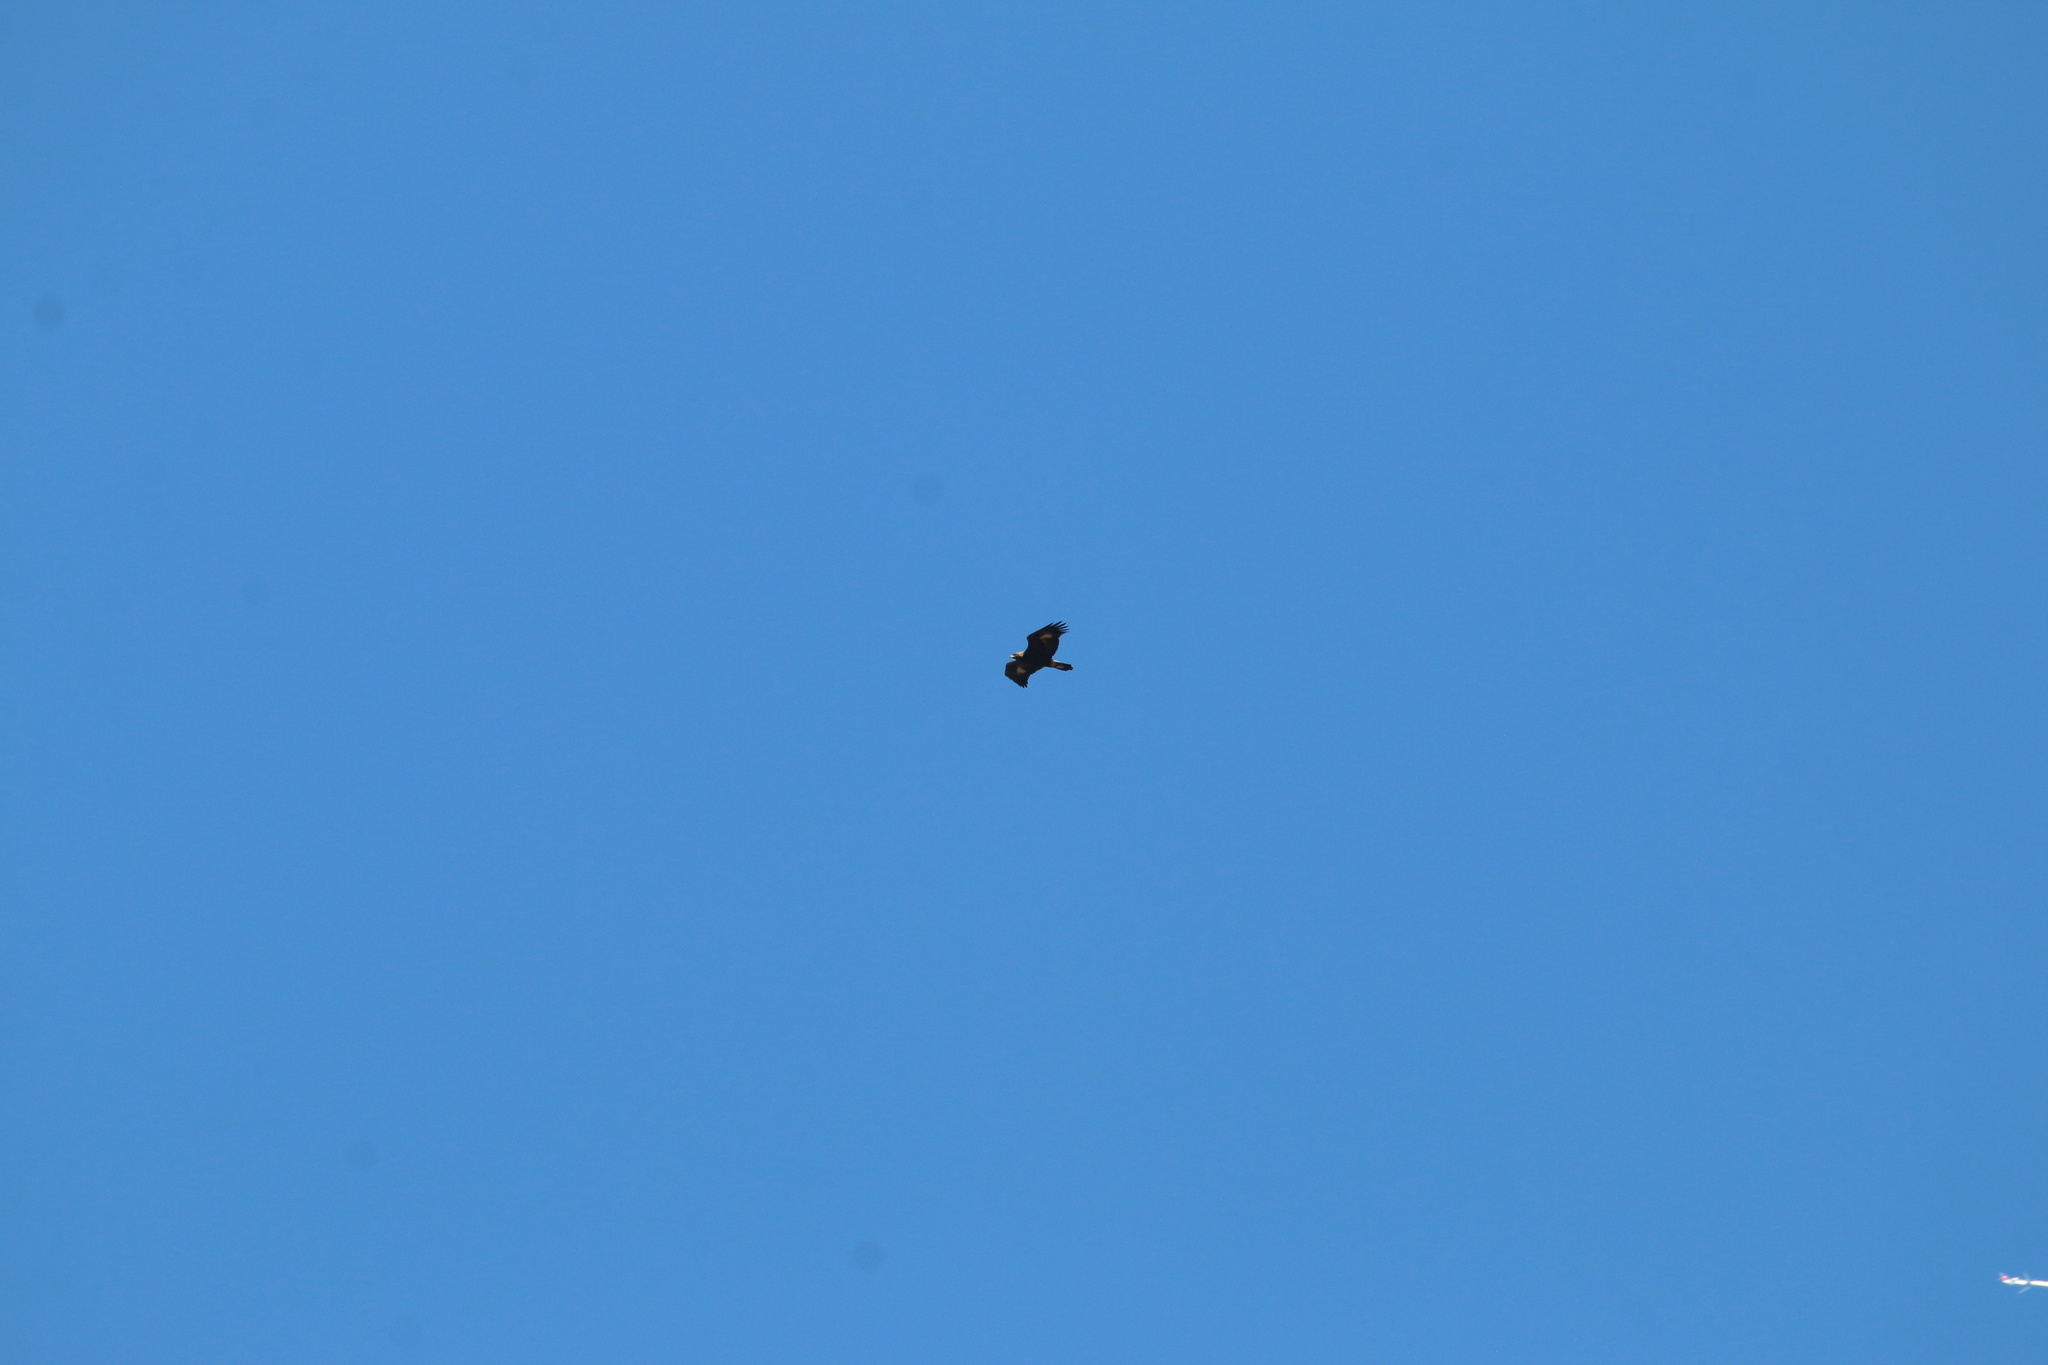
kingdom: Animalia
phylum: Chordata
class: Aves
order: Accipitriformes
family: Accipitridae
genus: Aquila
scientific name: Aquila chrysaetos
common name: Golden eagle
